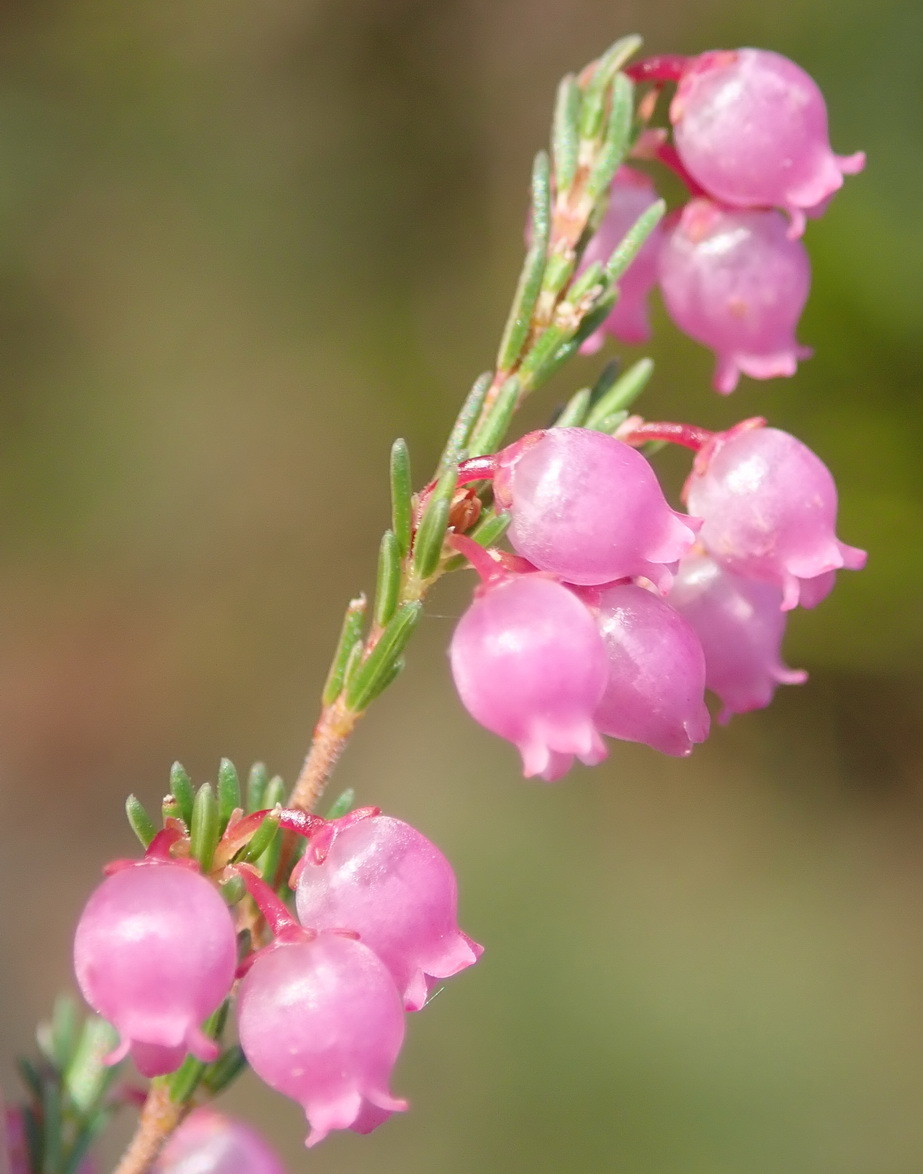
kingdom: Plantae
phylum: Tracheophyta
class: Magnoliopsida
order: Ericales
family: Ericaceae
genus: Erica
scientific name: Erica gracilis
